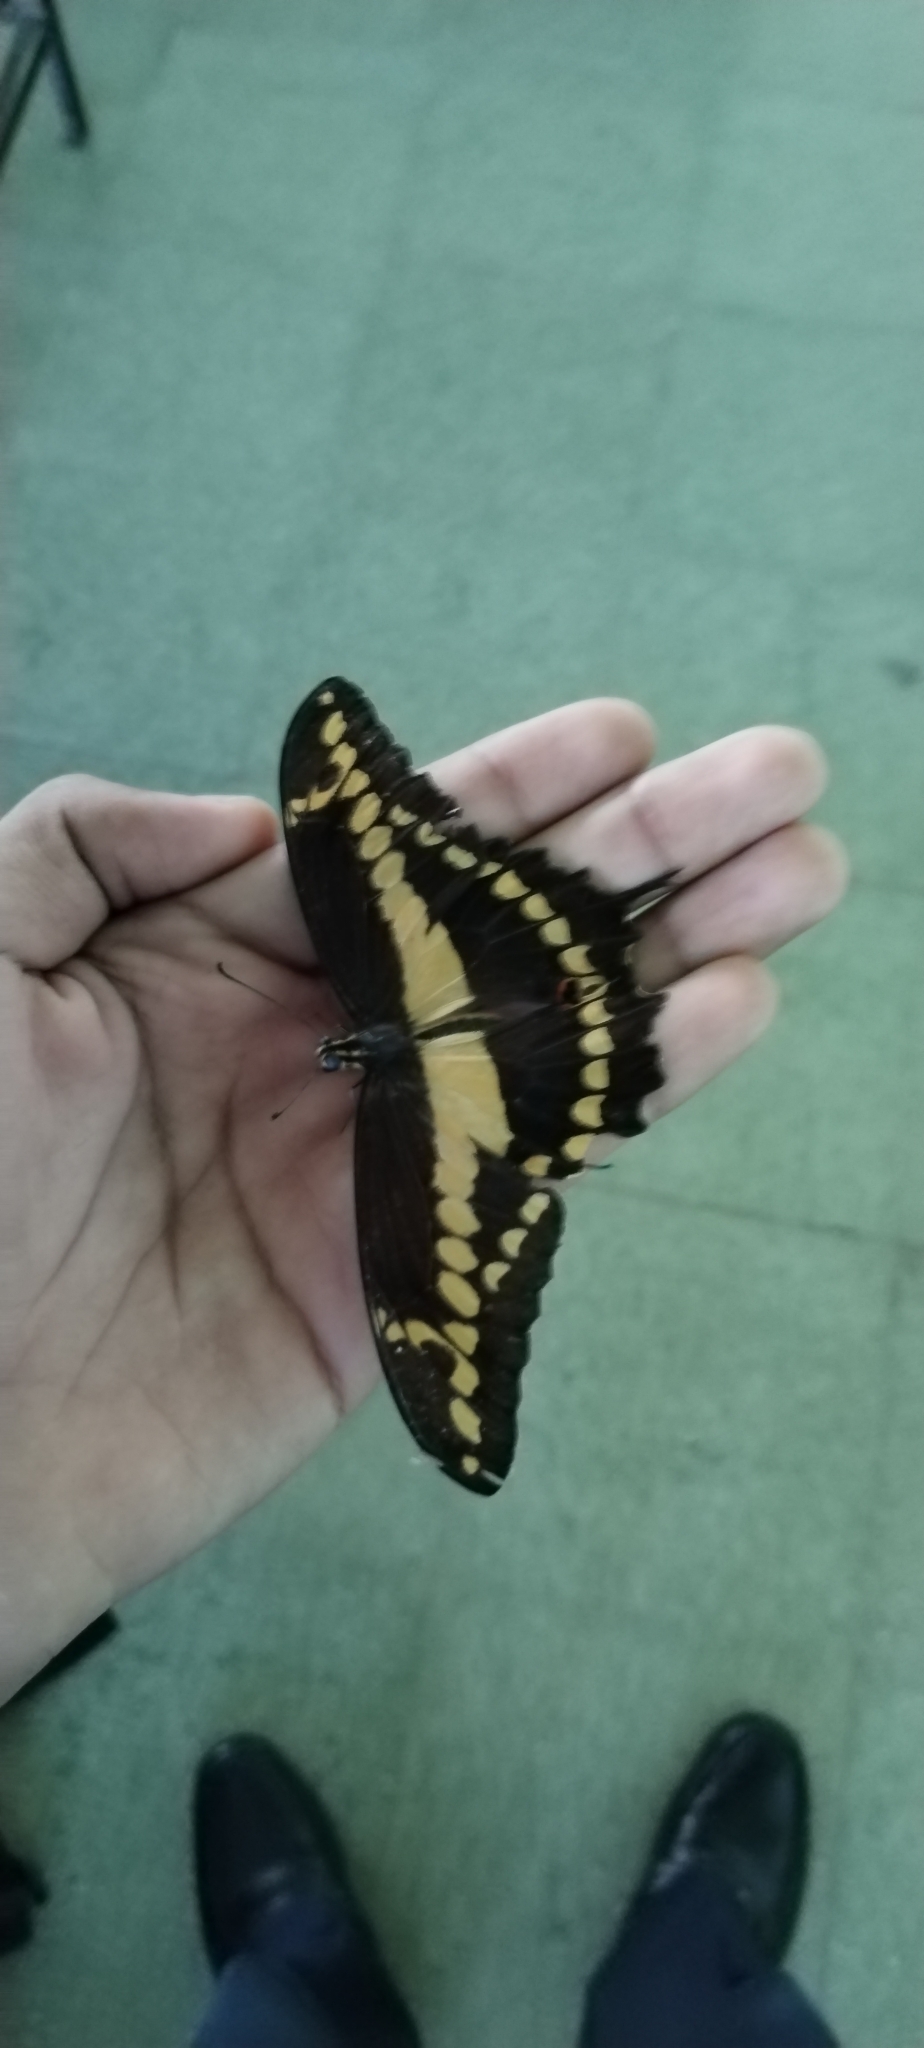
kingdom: Animalia
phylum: Arthropoda
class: Insecta
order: Lepidoptera
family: Papilionidae
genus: Papilio
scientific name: Papilio rumiko
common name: Western giant swallowtail
